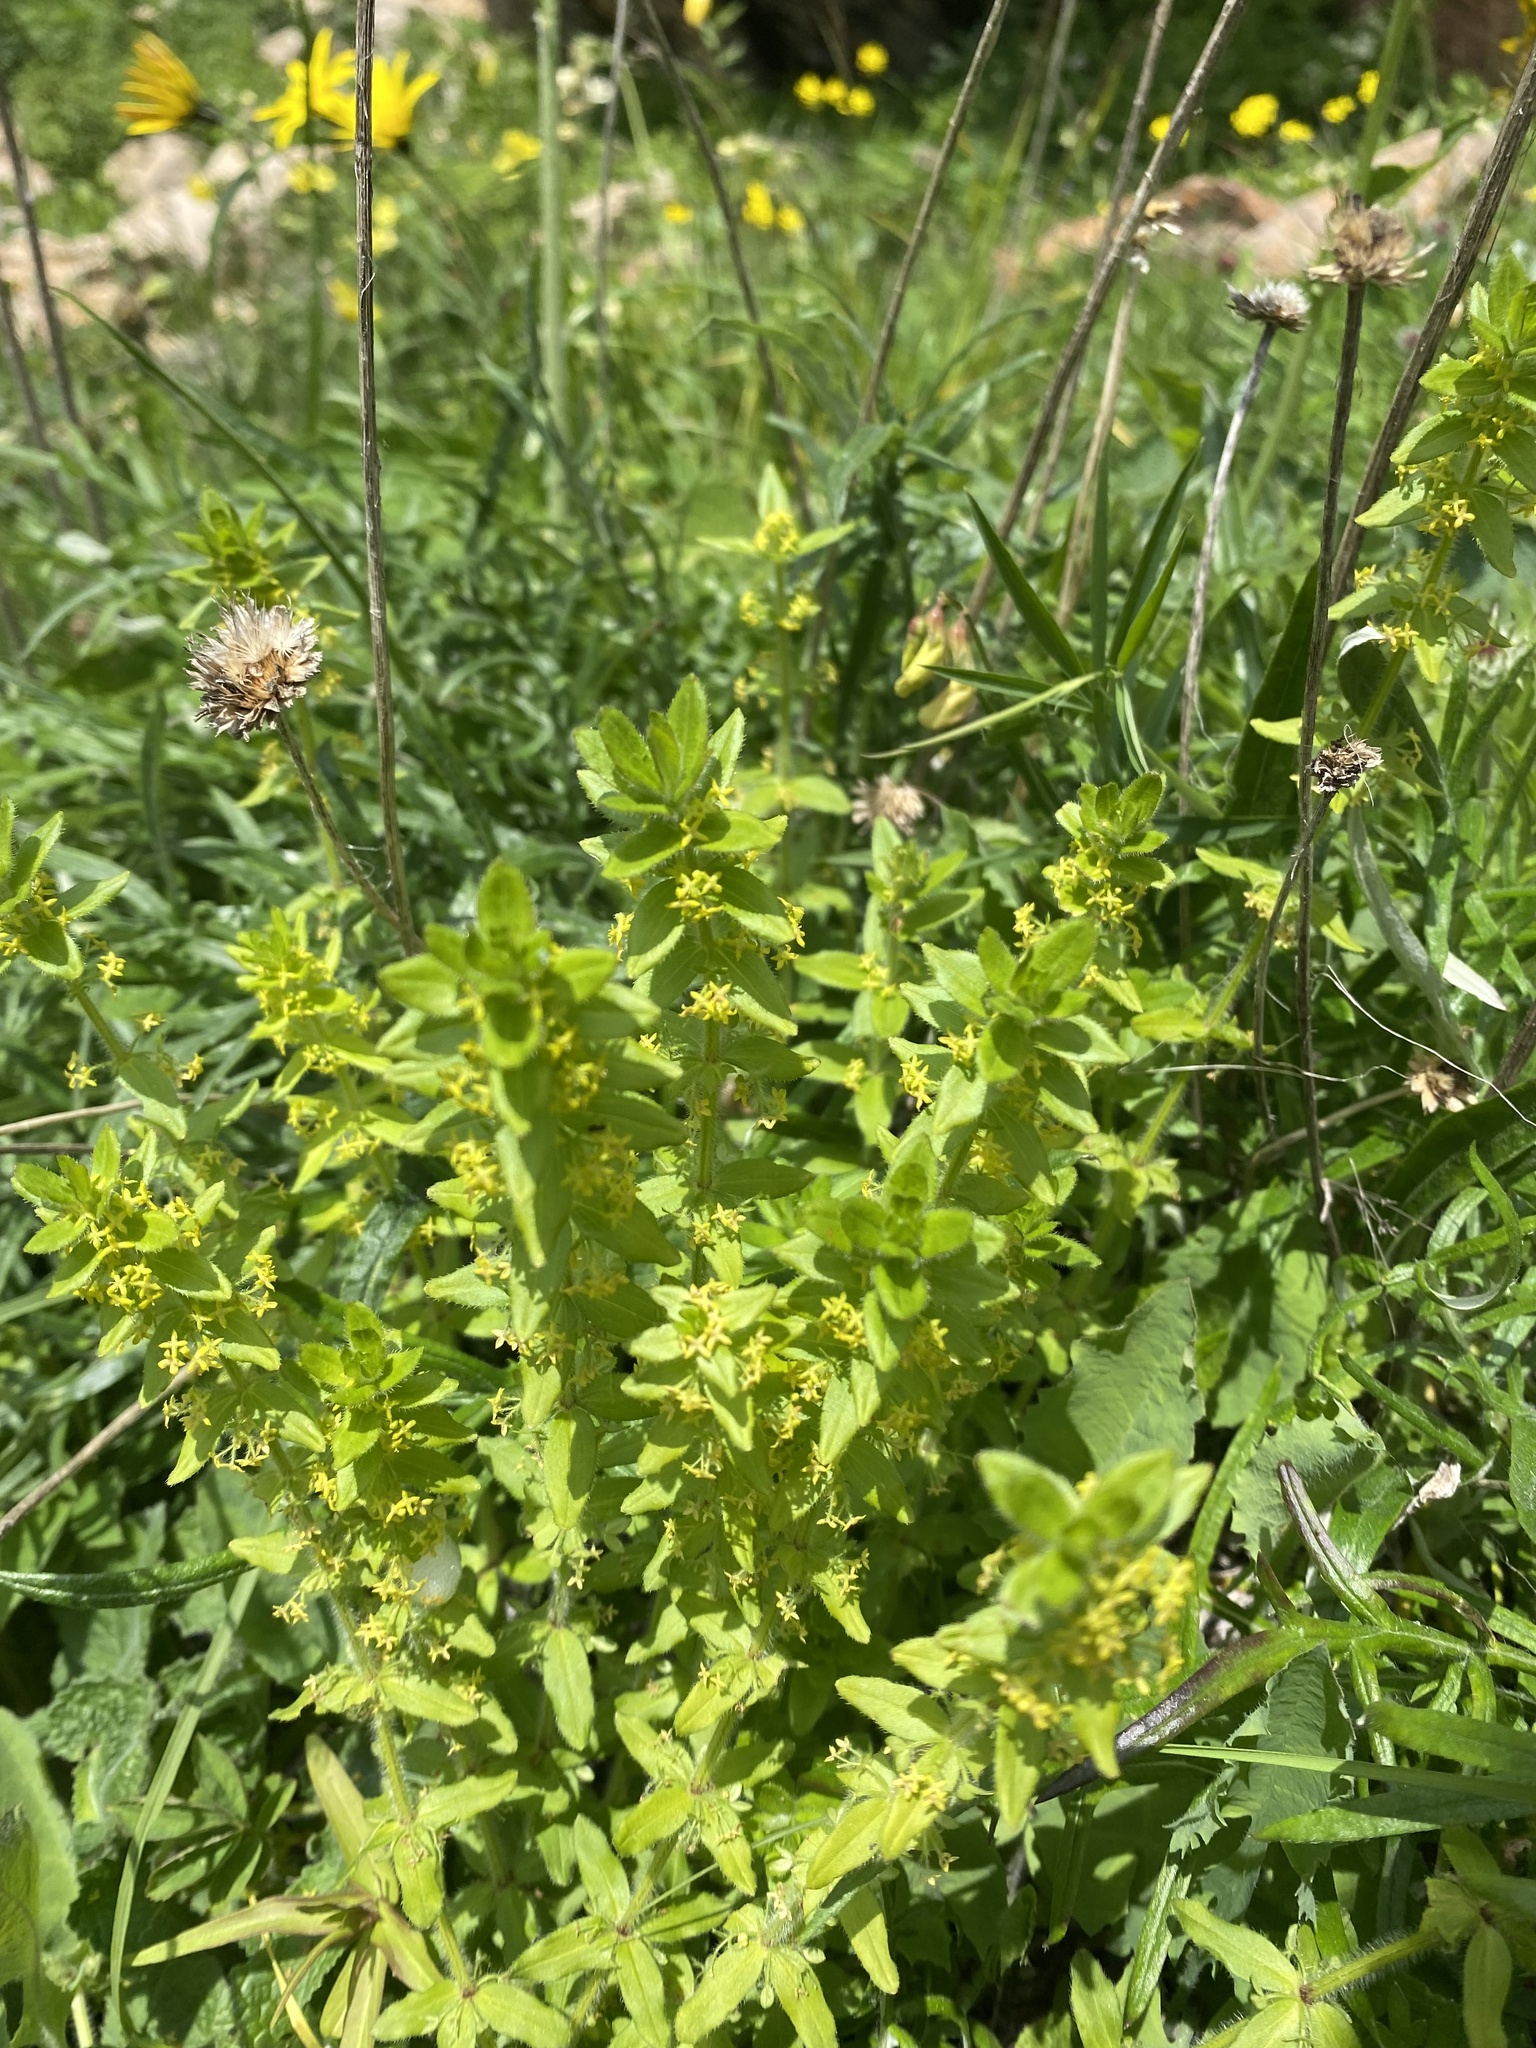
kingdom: Plantae
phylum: Tracheophyta
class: Magnoliopsida
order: Gentianales
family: Rubiaceae
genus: Cruciata
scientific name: Cruciata laevipes
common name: Crosswort
